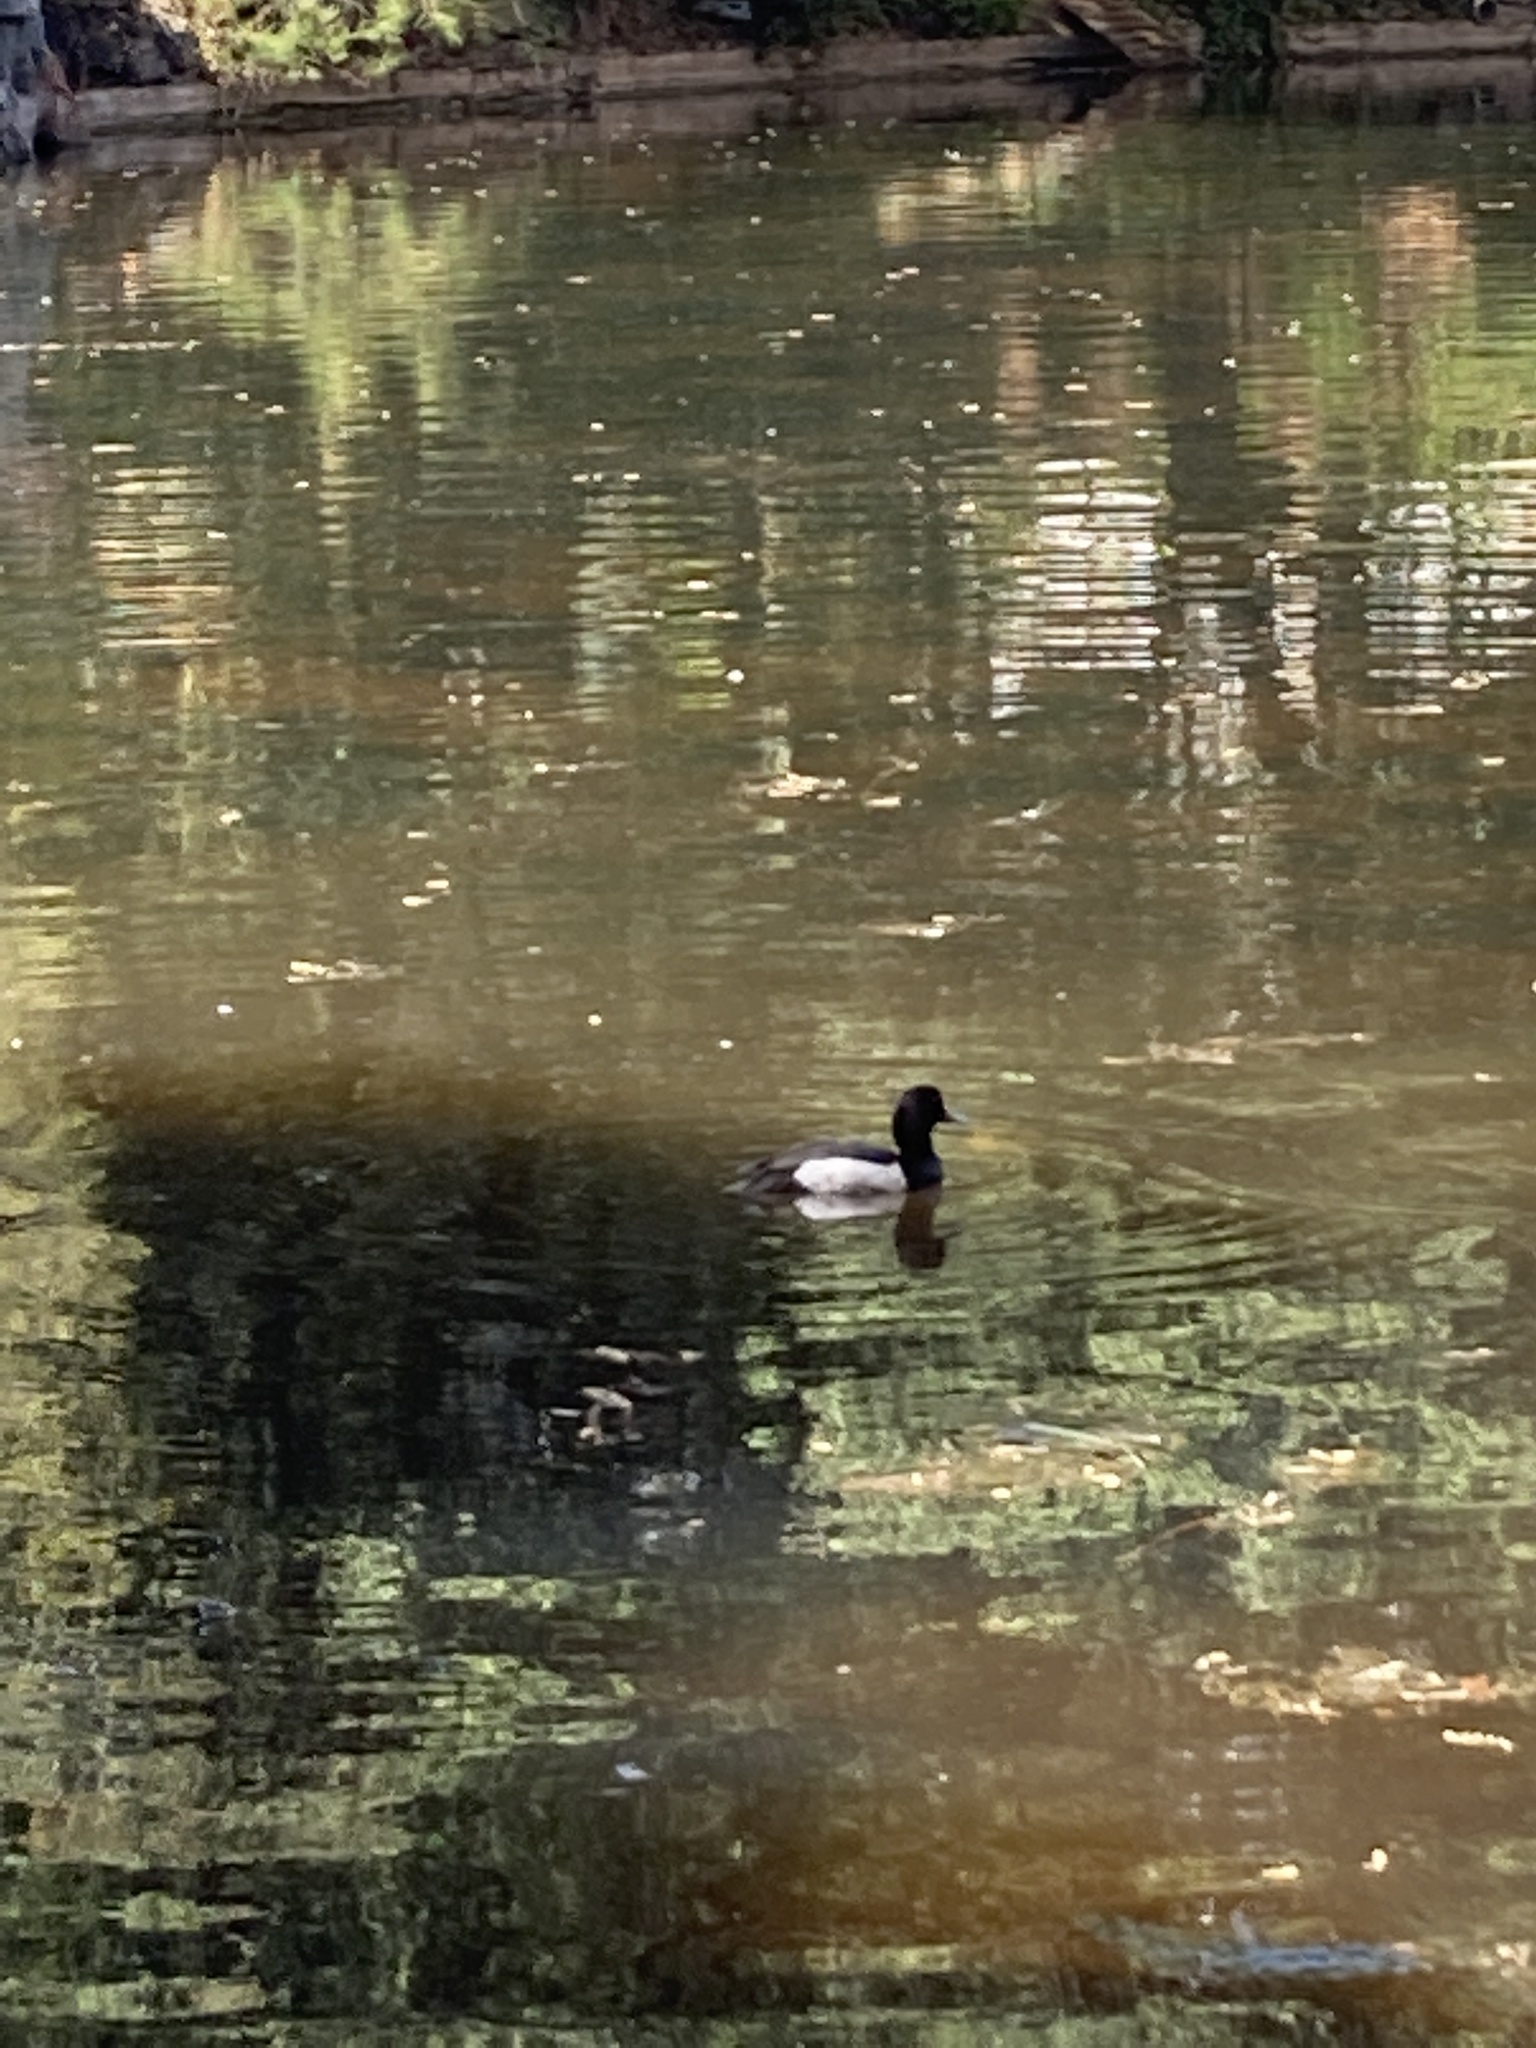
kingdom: Animalia
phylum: Chordata
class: Aves
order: Anseriformes
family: Anatidae
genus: Aythya
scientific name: Aythya fuligula
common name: Tufted duck
